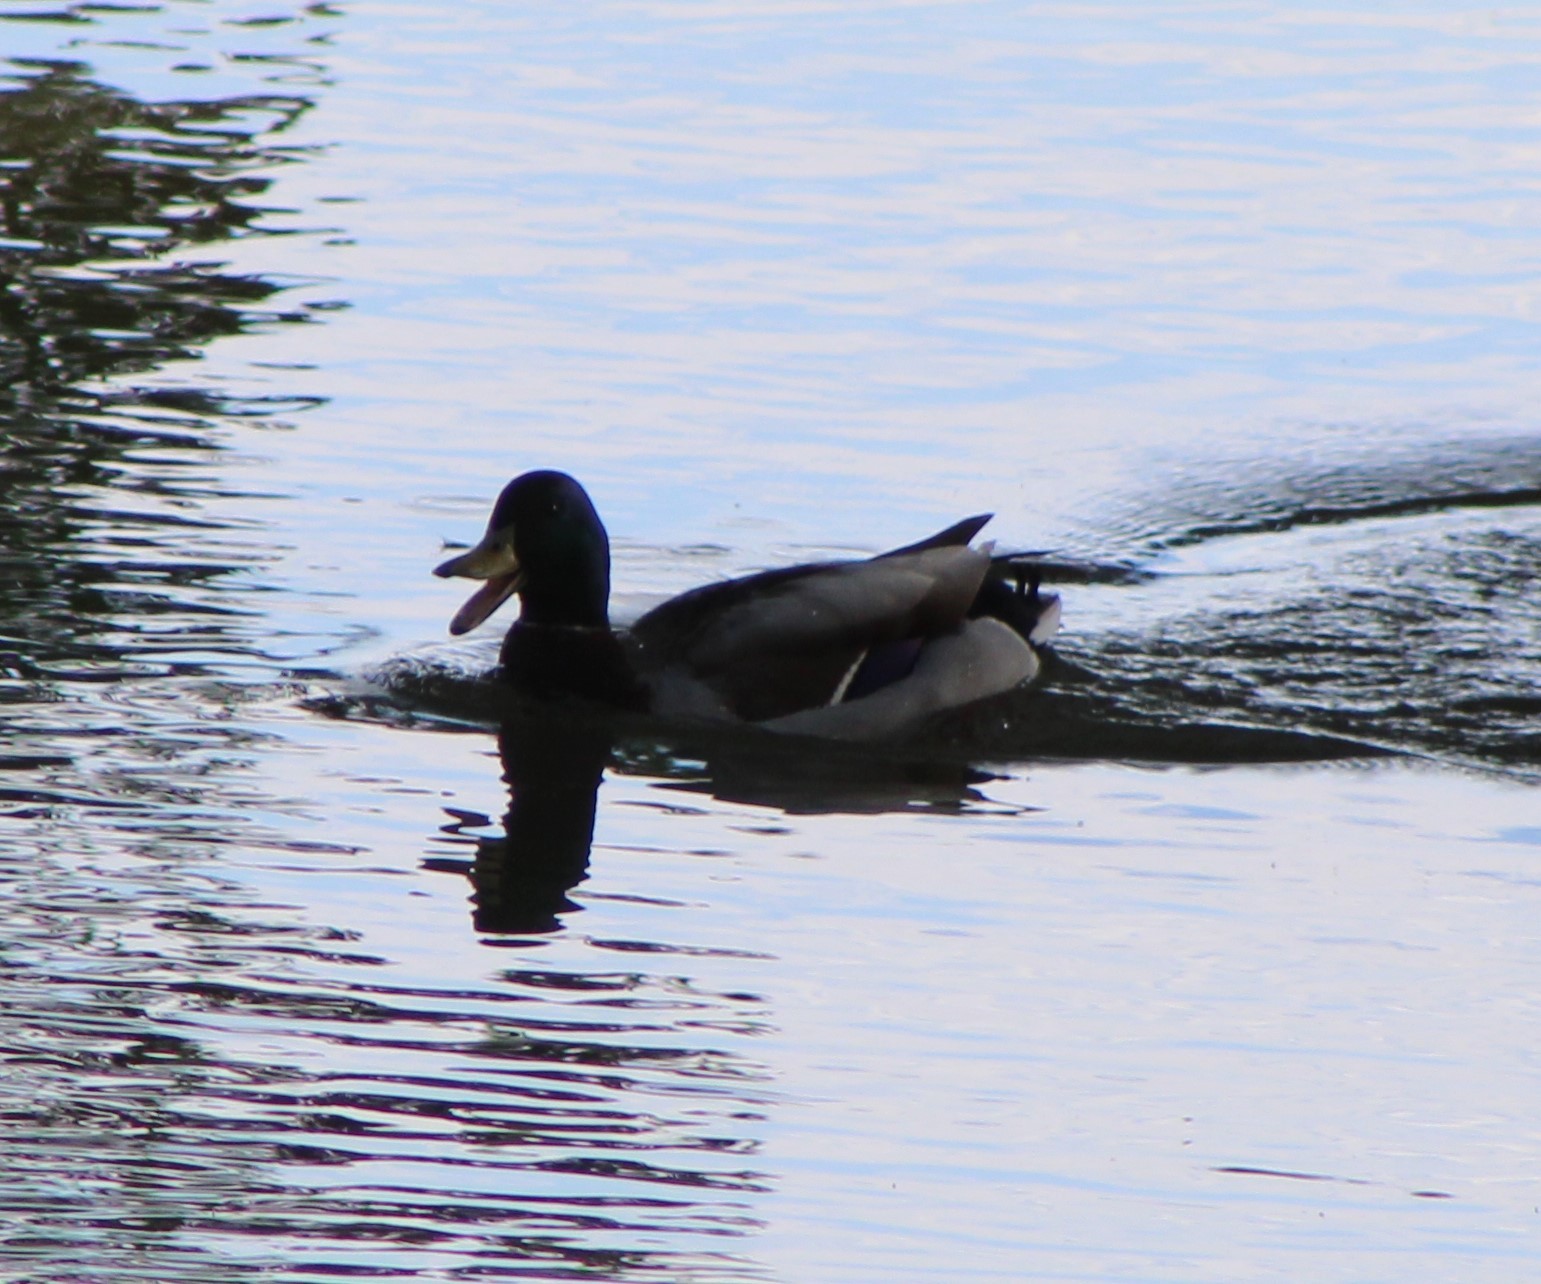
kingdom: Animalia
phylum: Chordata
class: Aves
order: Anseriformes
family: Anatidae
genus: Anas
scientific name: Anas platyrhynchos
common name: Mallard
